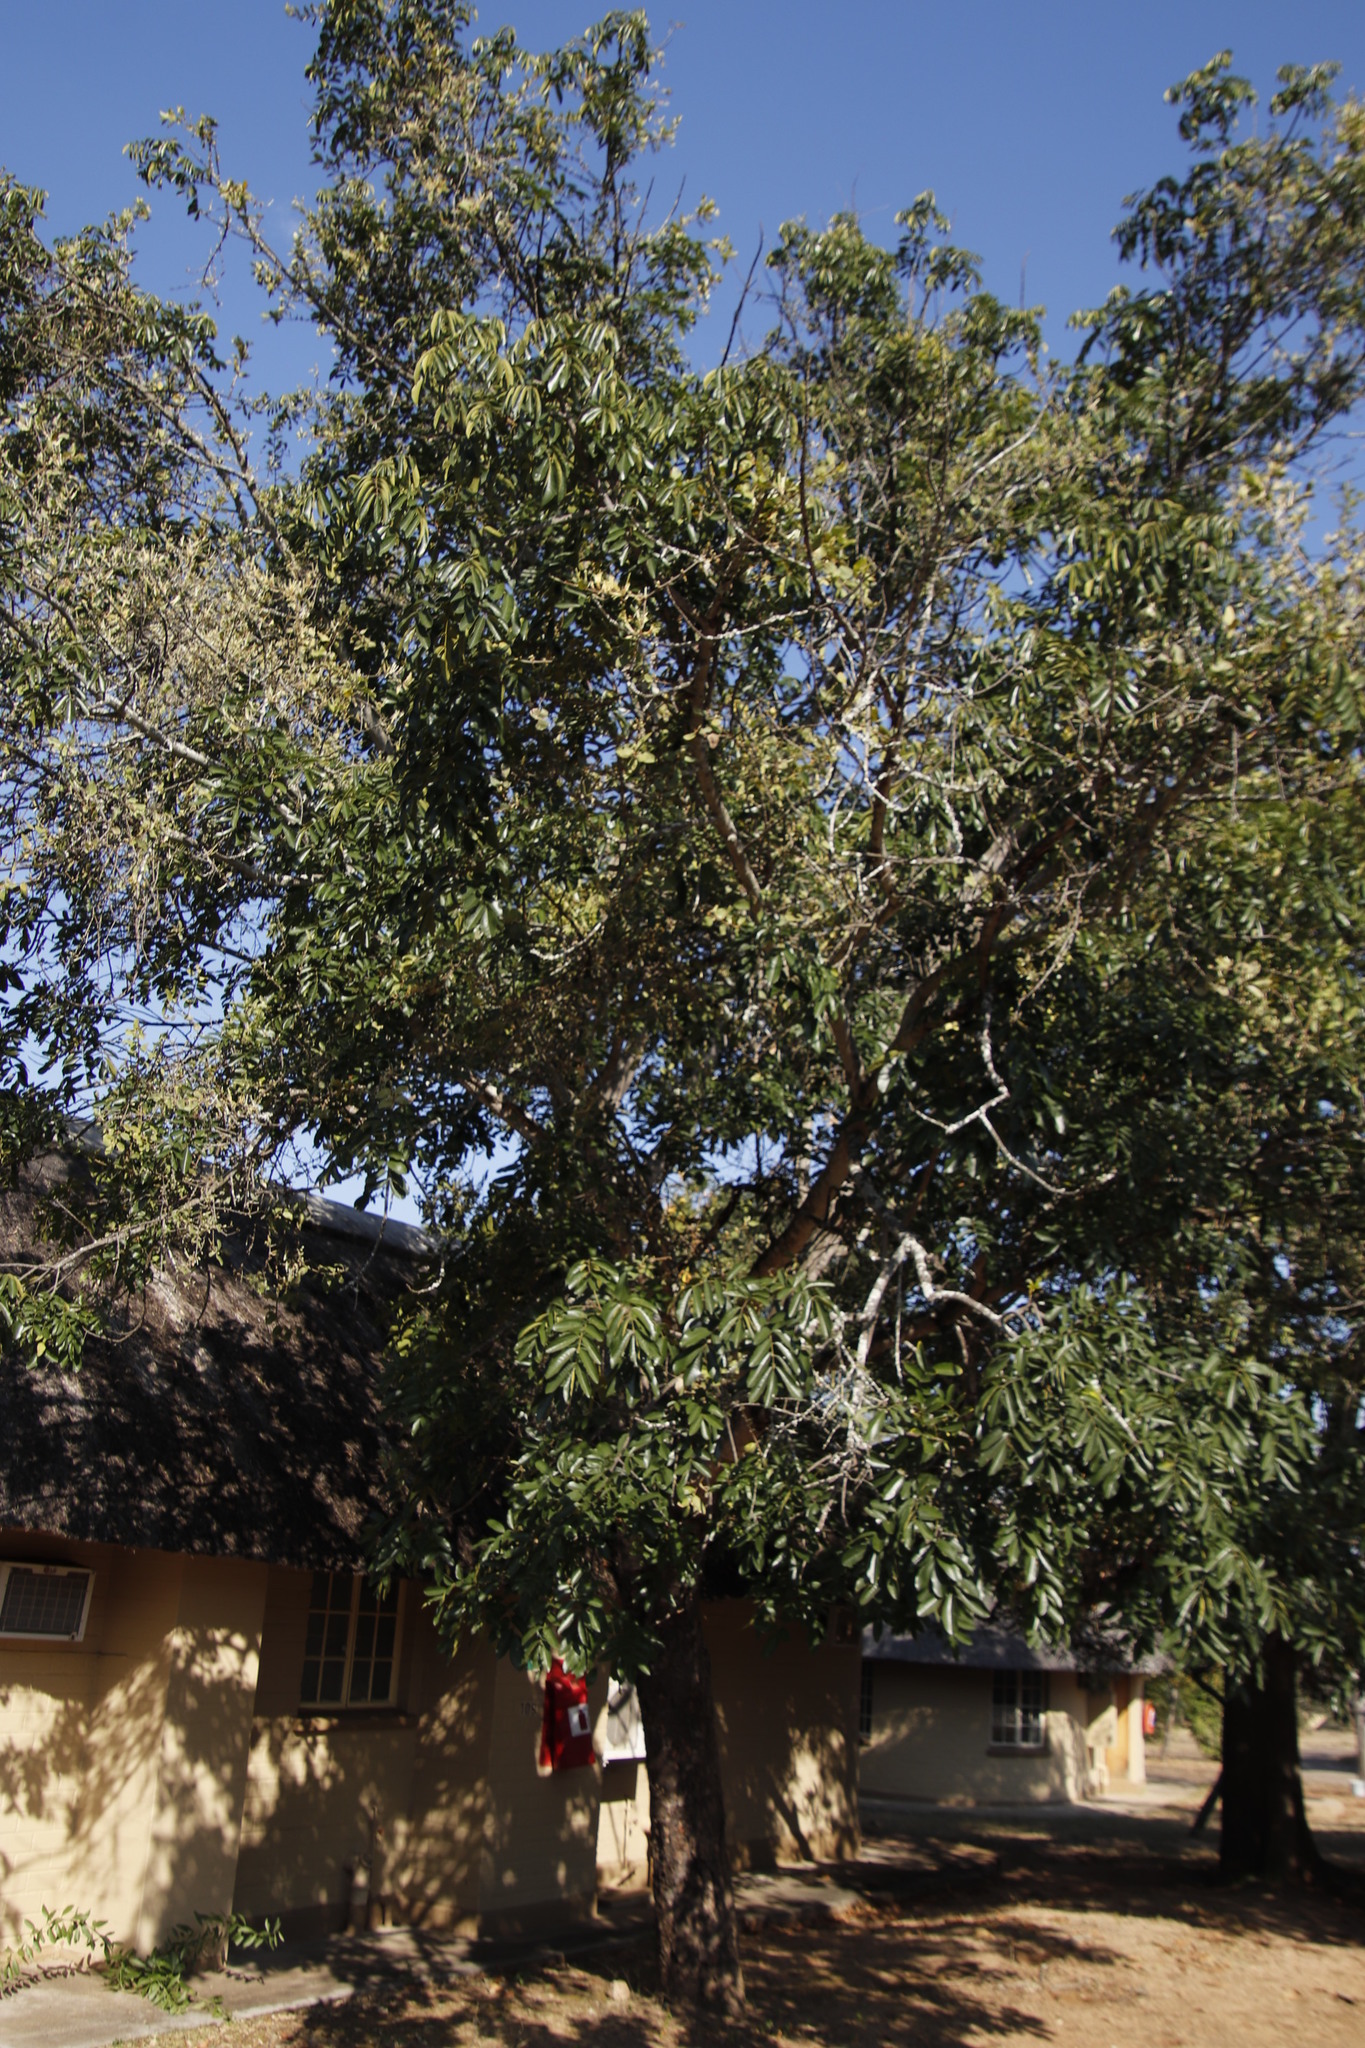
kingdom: Plantae
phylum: Tracheophyta
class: Magnoliopsida
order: Santalales
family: Loranthaceae
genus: Erianthemum
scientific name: Erianthemum dregei
